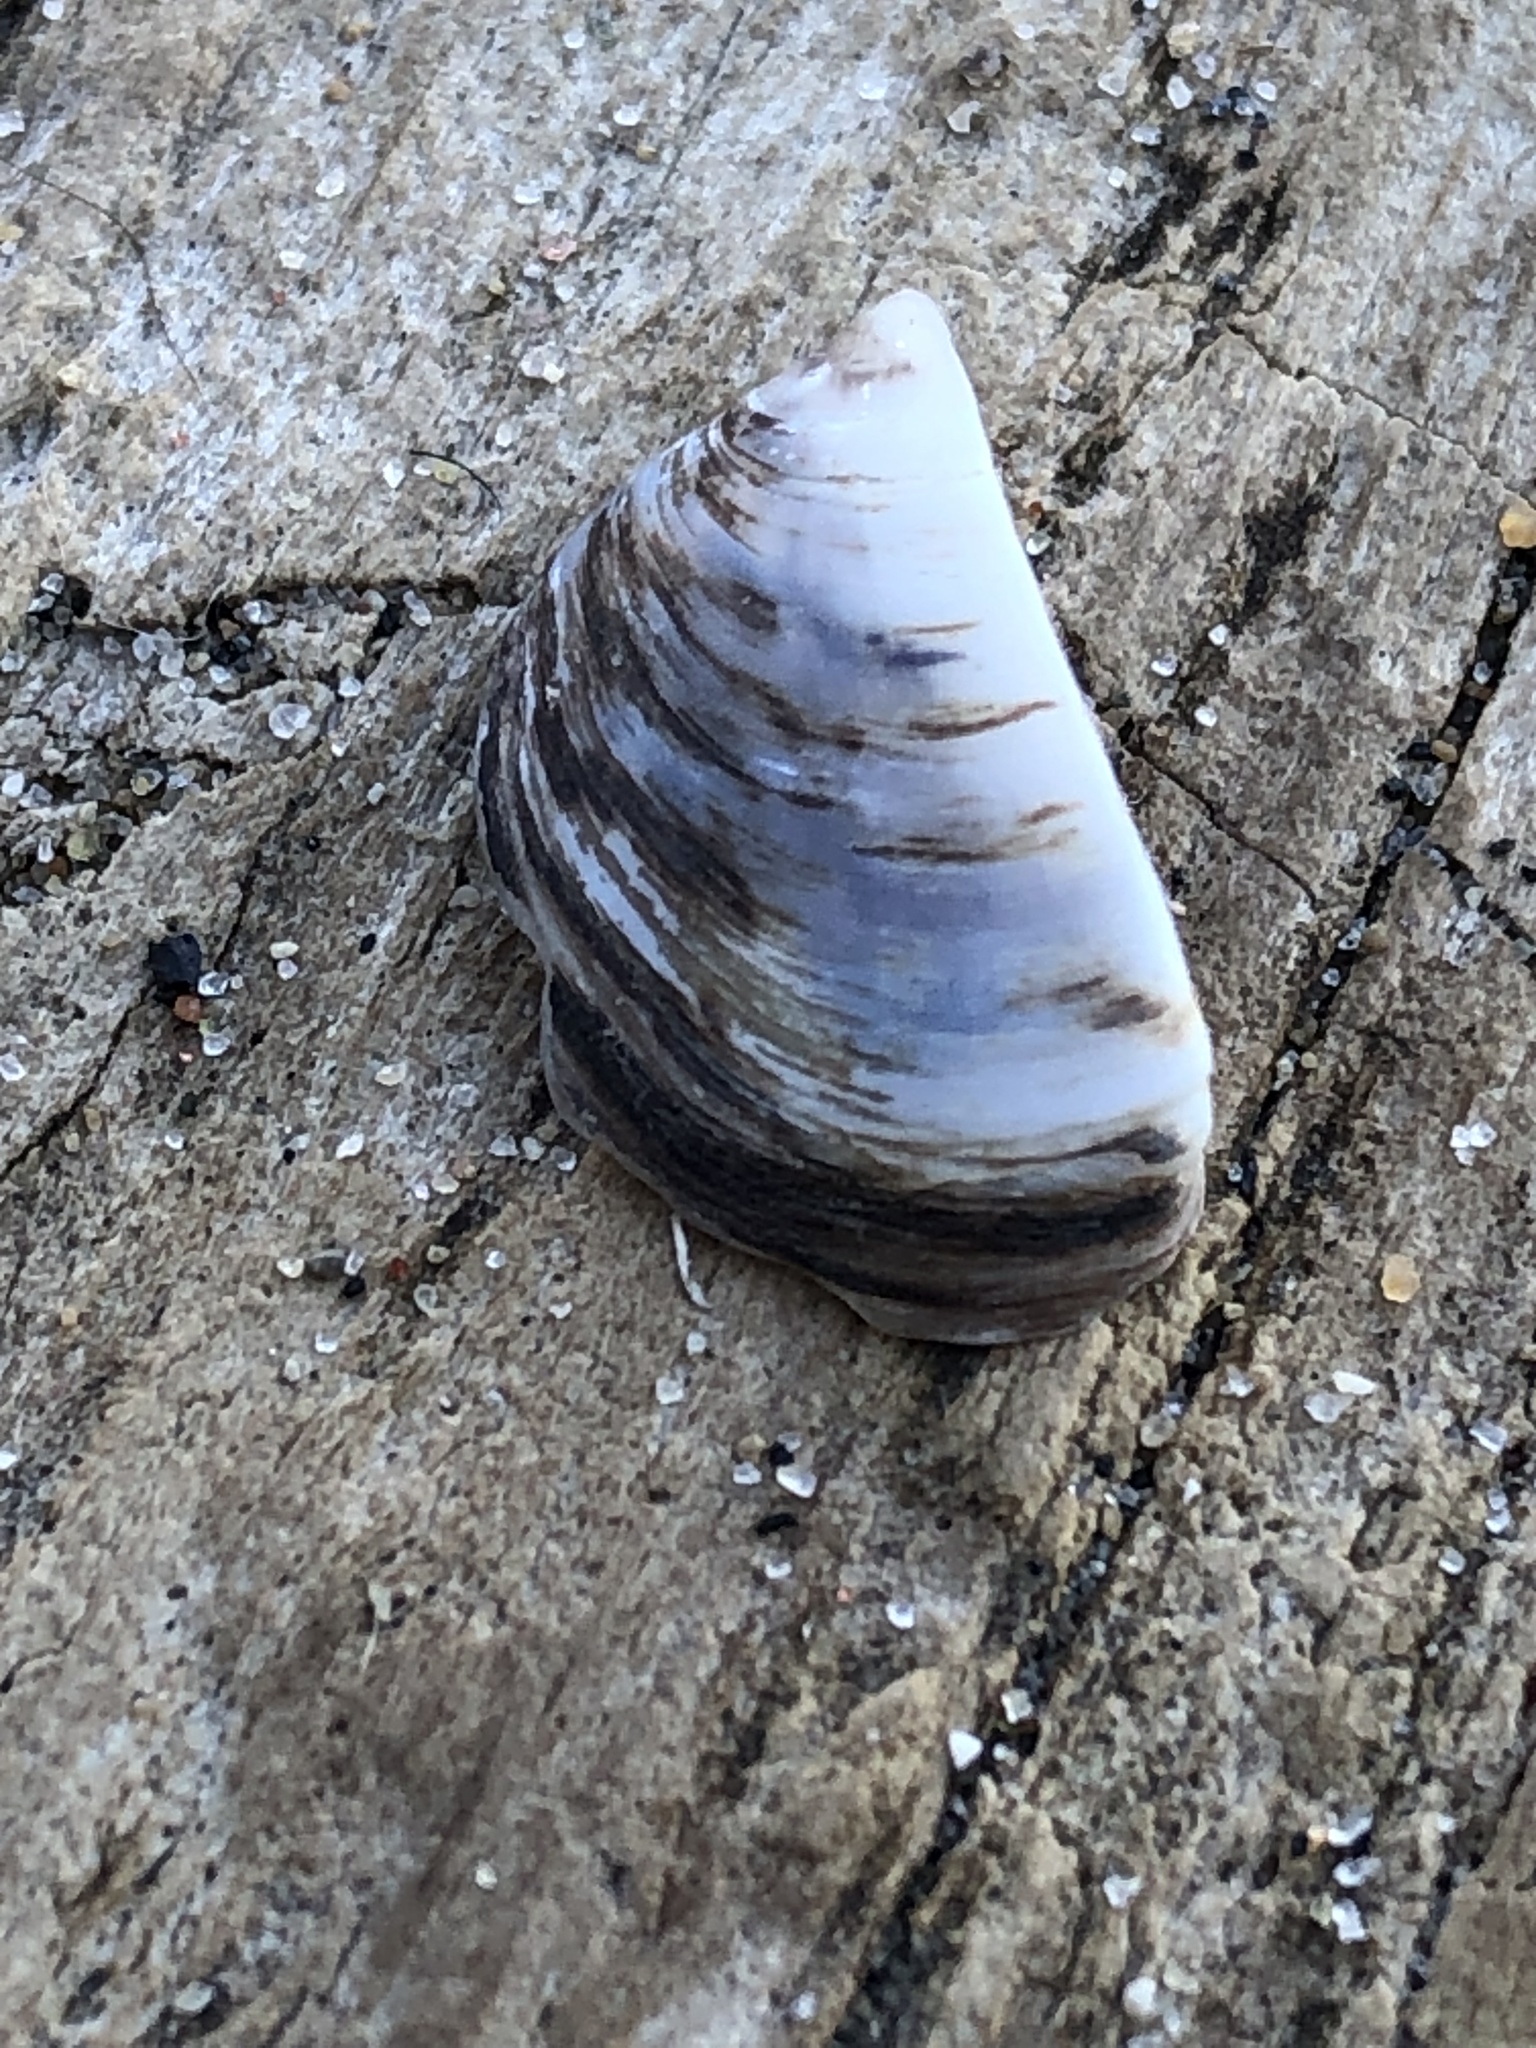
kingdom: Animalia
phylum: Mollusca
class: Bivalvia
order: Myida
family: Dreissenidae
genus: Dreissena
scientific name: Dreissena polymorpha
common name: Zebra mussel
